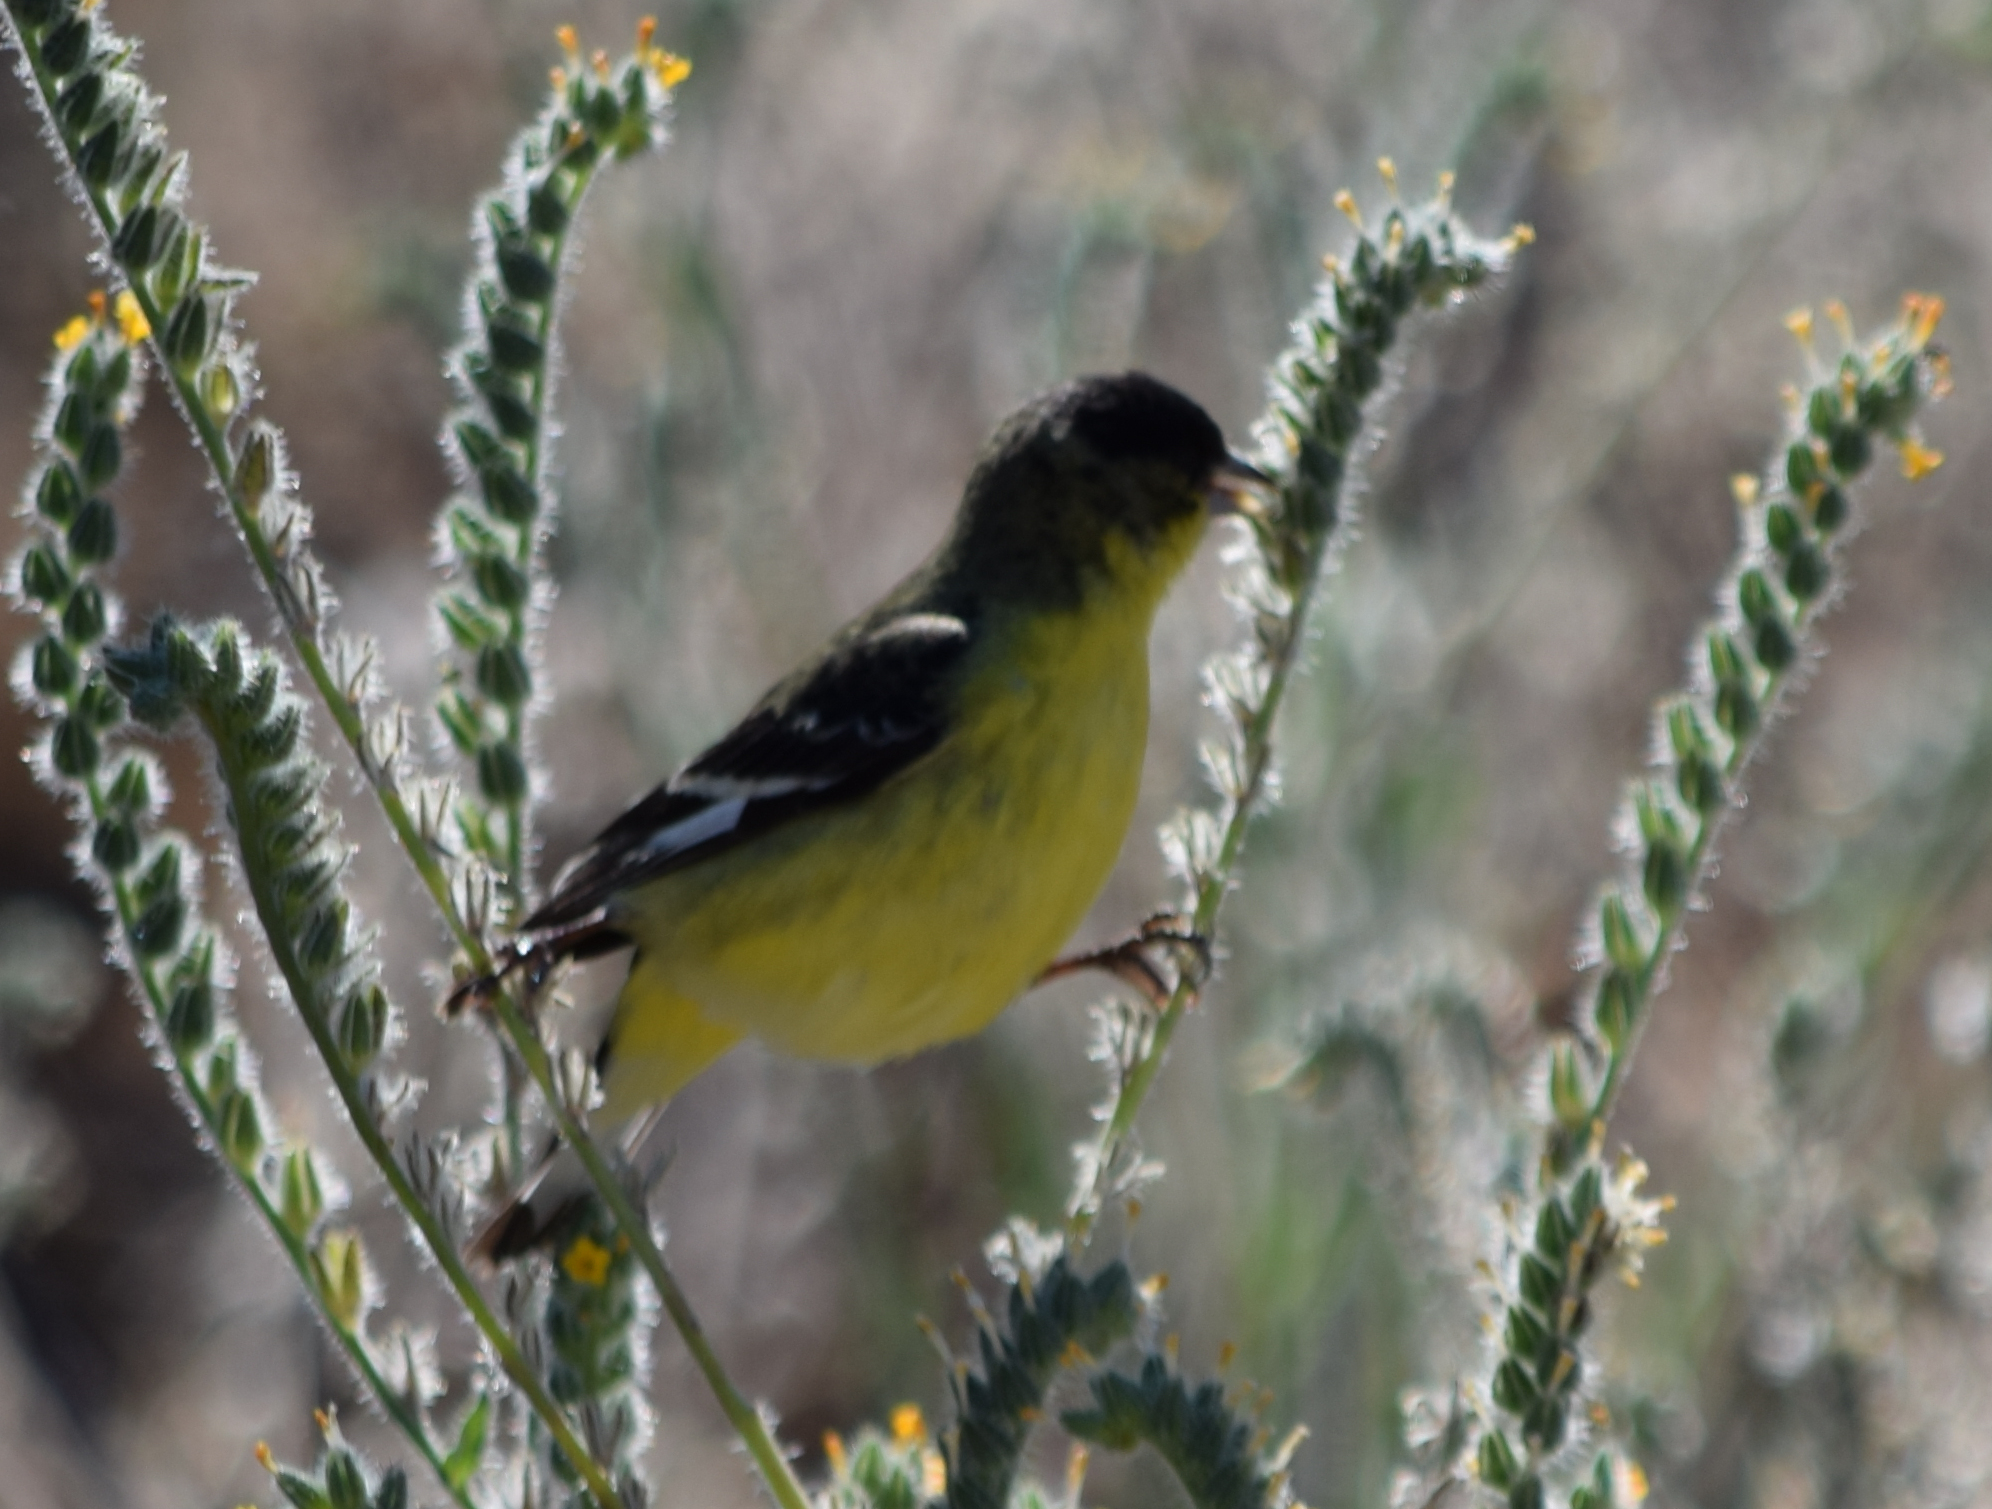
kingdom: Animalia
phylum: Chordata
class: Aves
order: Passeriformes
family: Fringillidae
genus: Spinus
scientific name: Spinus psaltria
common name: Lesser goldfinch
